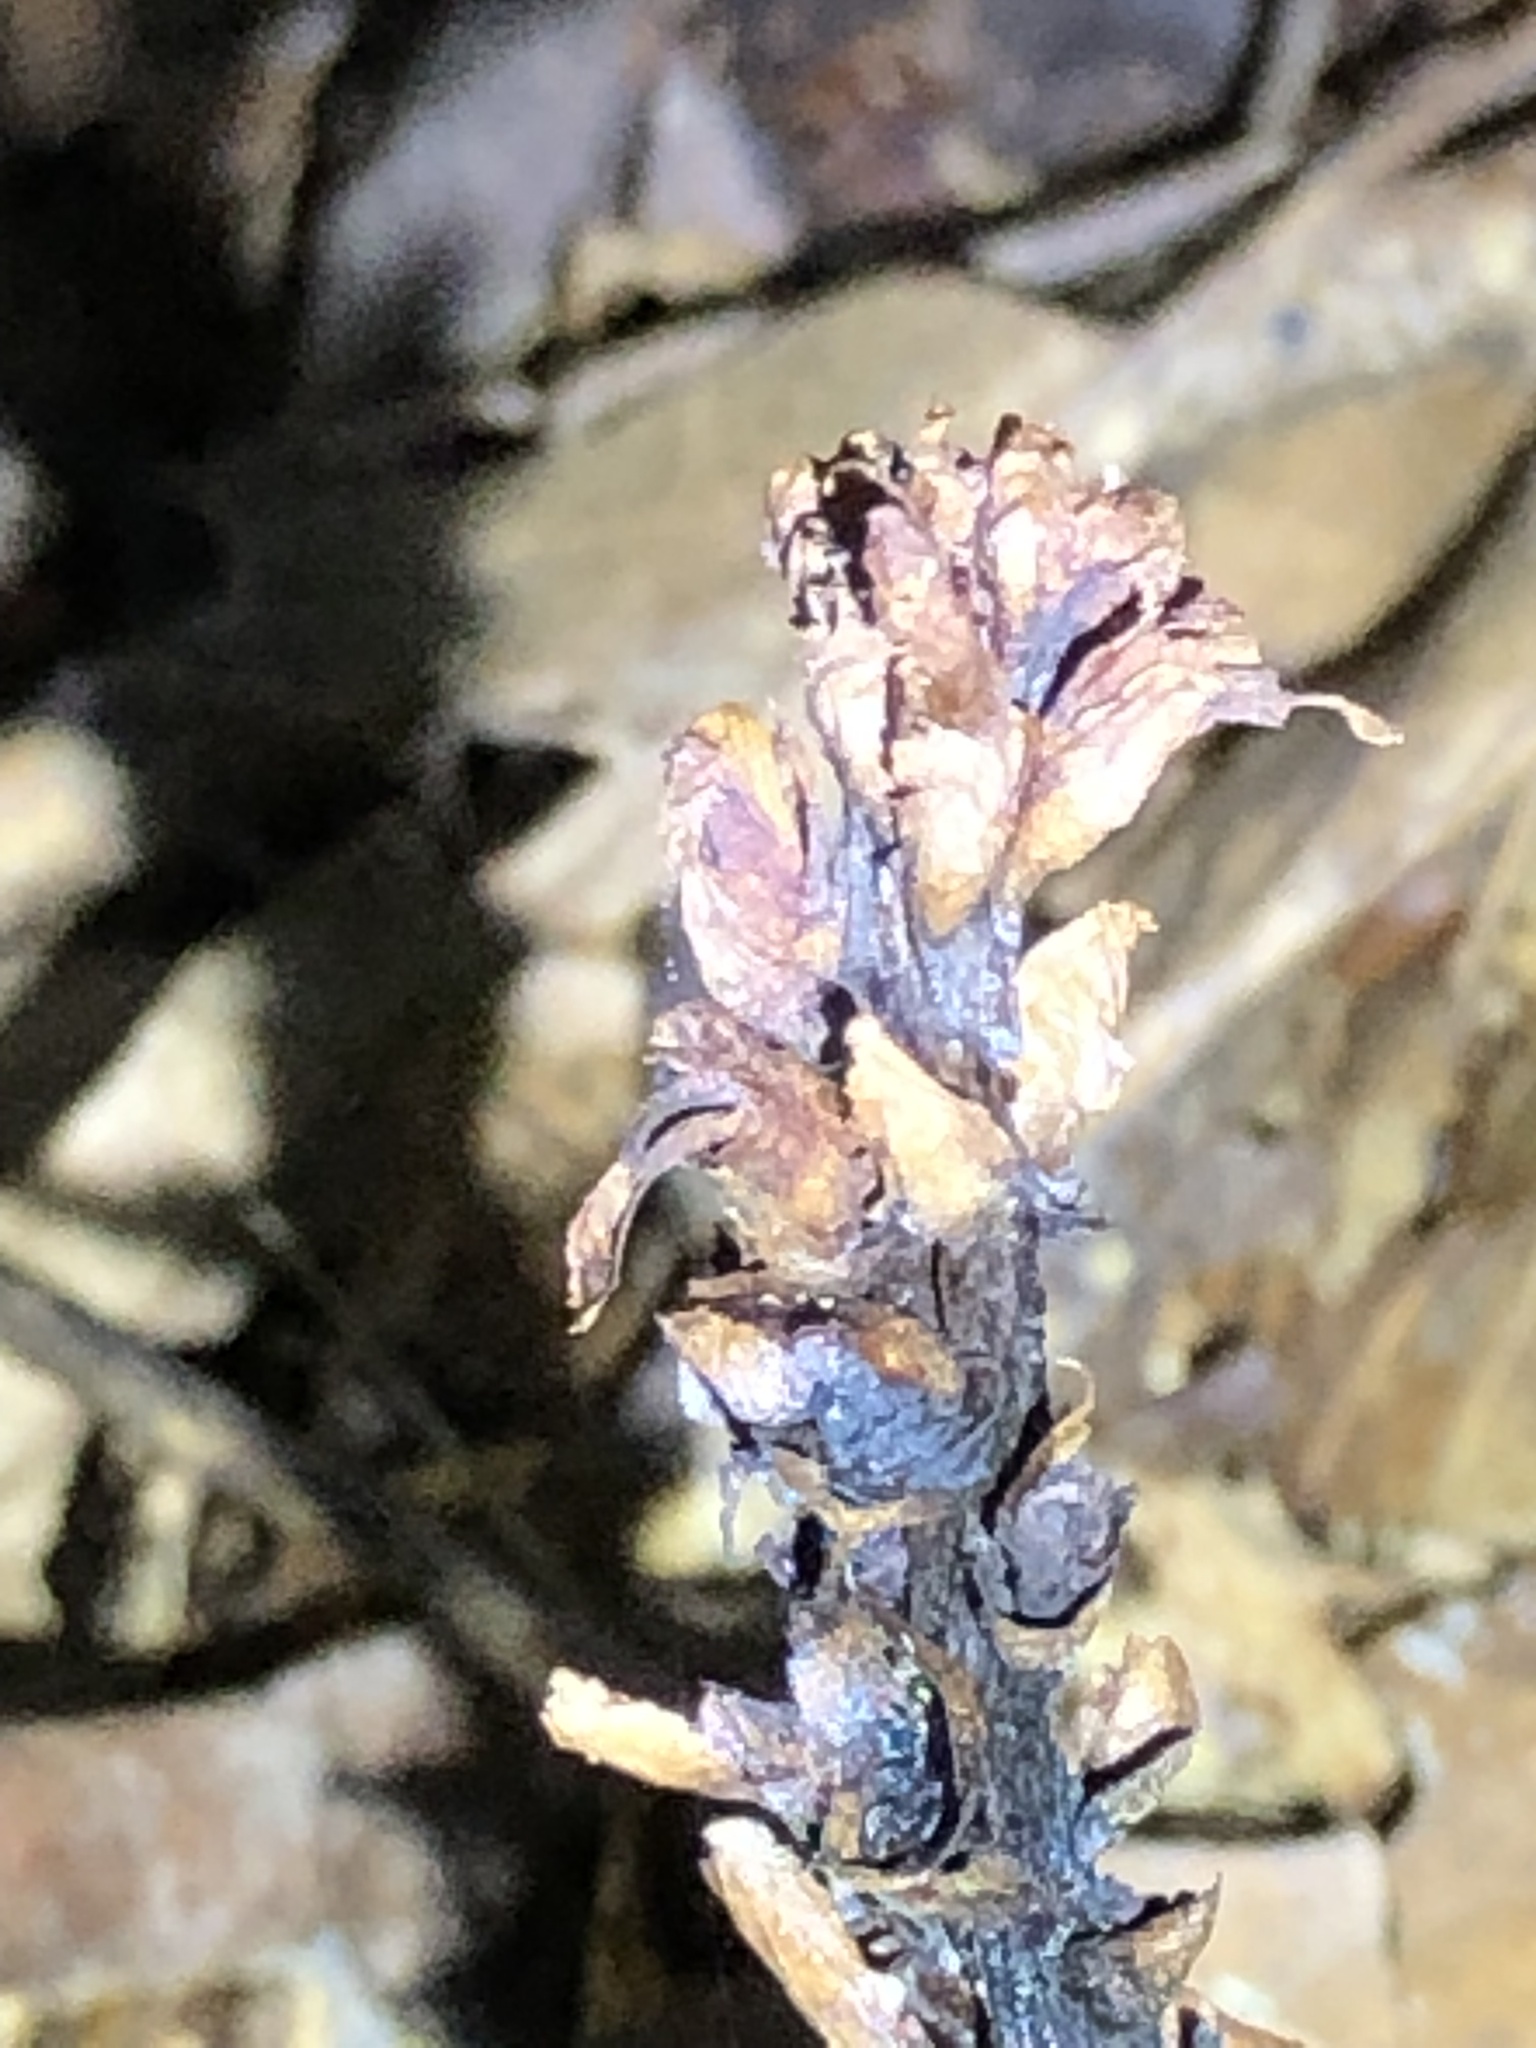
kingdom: Plantae
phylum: Tracheophyta
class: Magnoliopsida
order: Lamiales
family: Orobanchaceae
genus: Conopholis
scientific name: Conopholis americana
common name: American cancer-root
